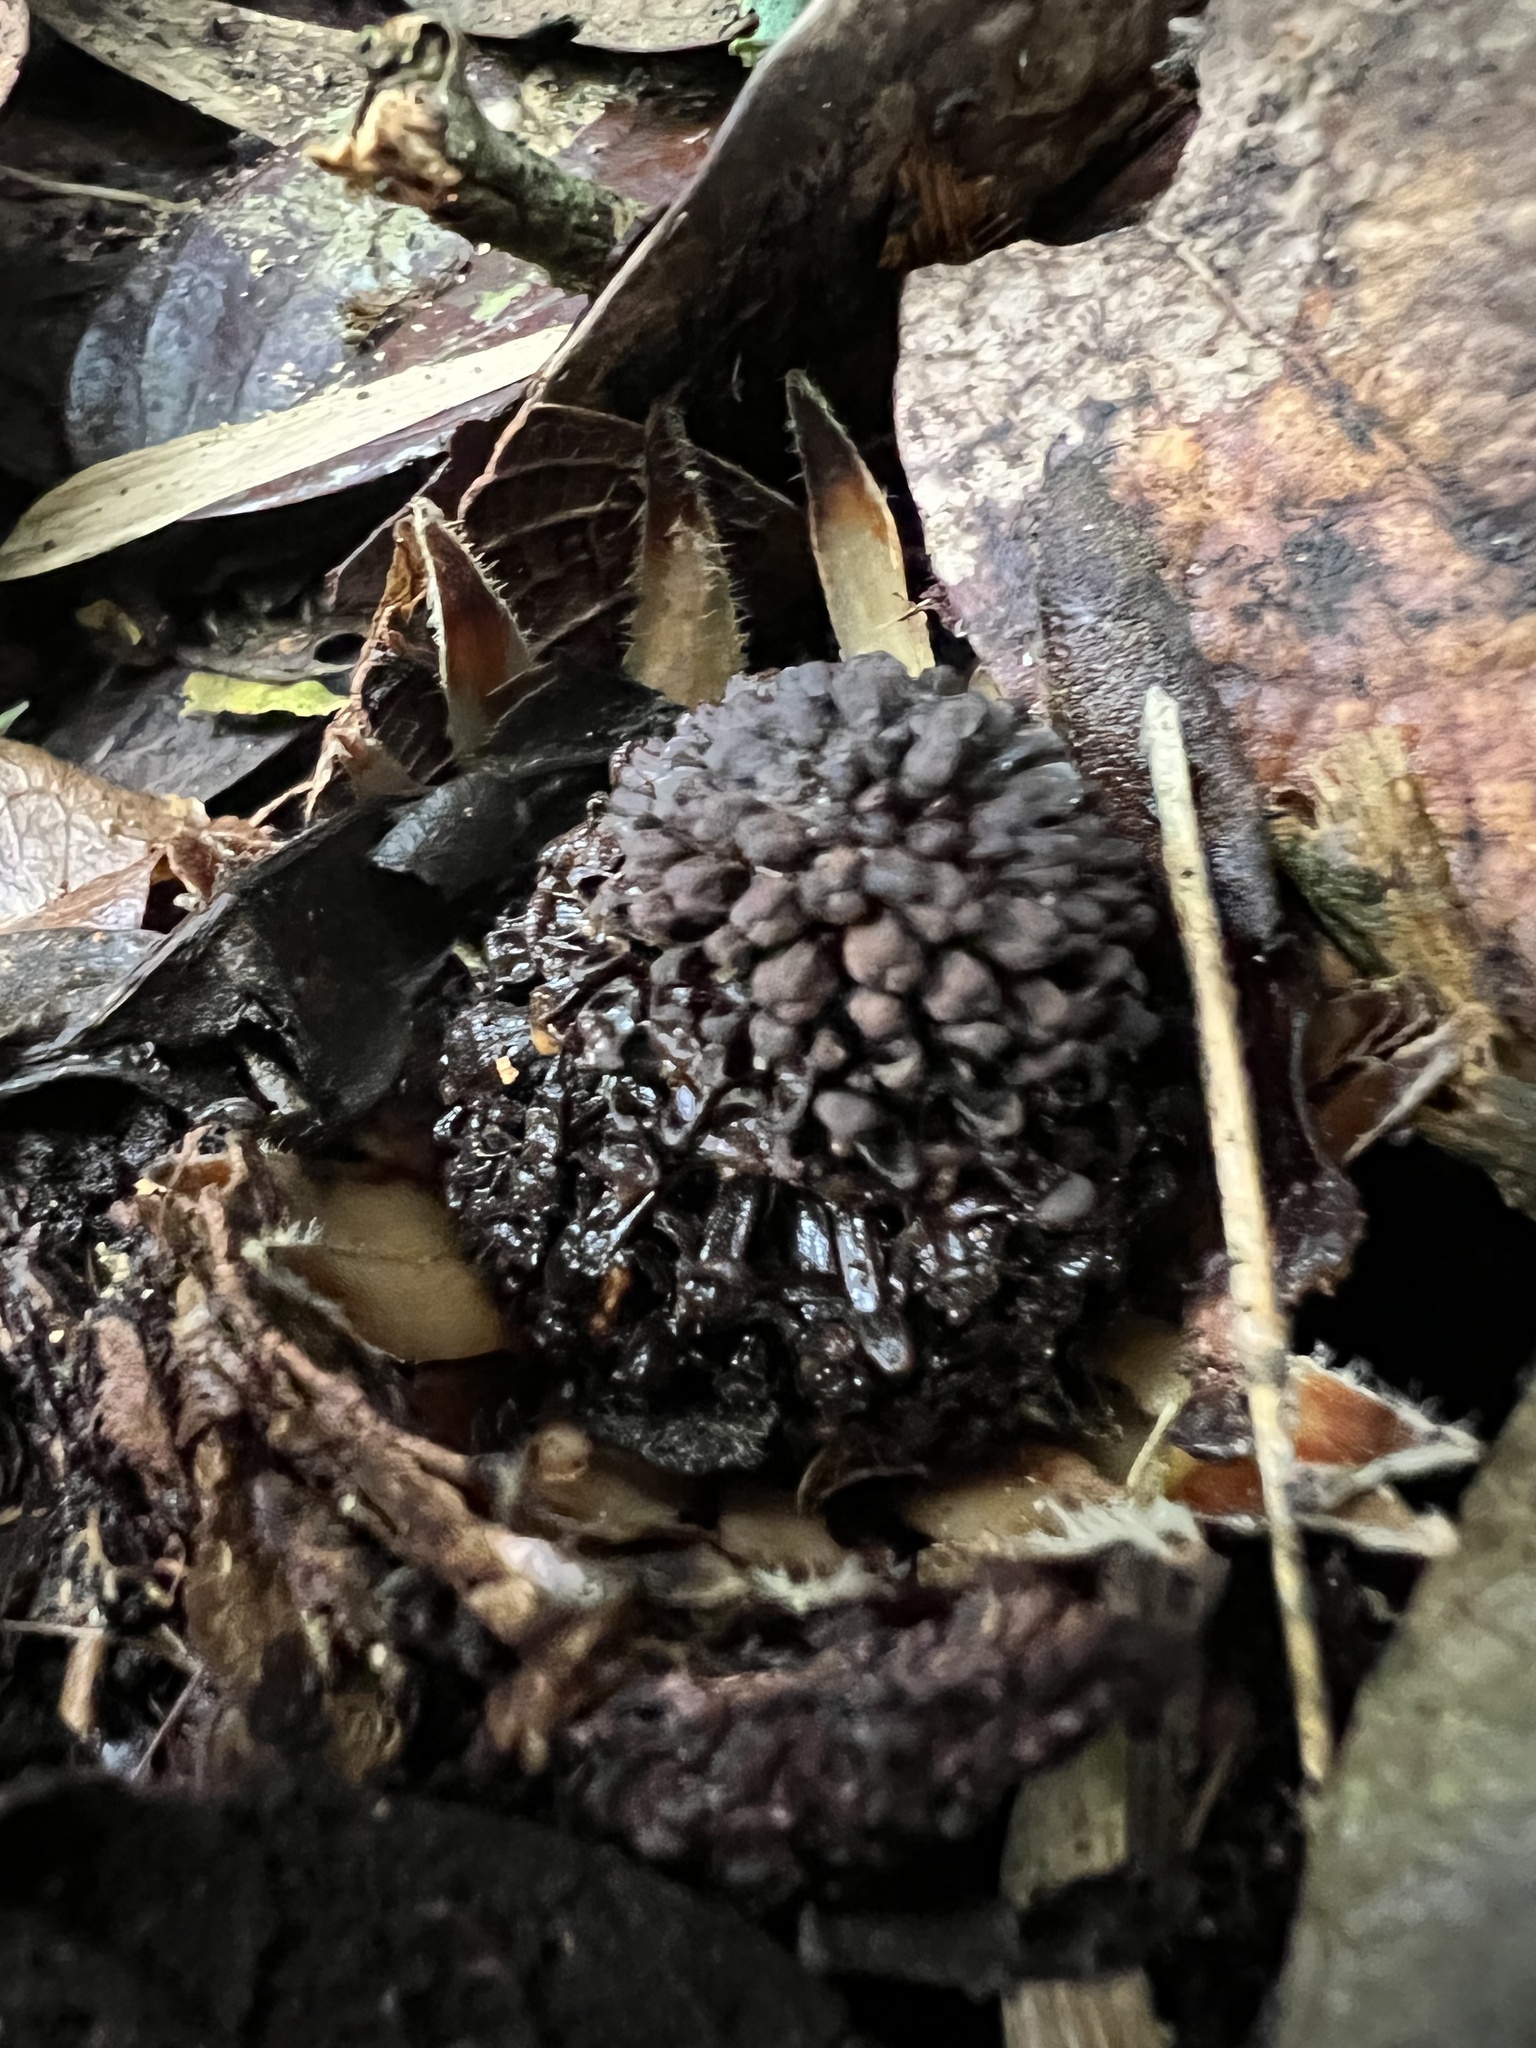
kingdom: Plantae
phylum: Tracheophyta
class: Magnoliopsida
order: Santalales
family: Balanophoraceae
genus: Langsdorffia
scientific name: Langsdorffia hypogaea
